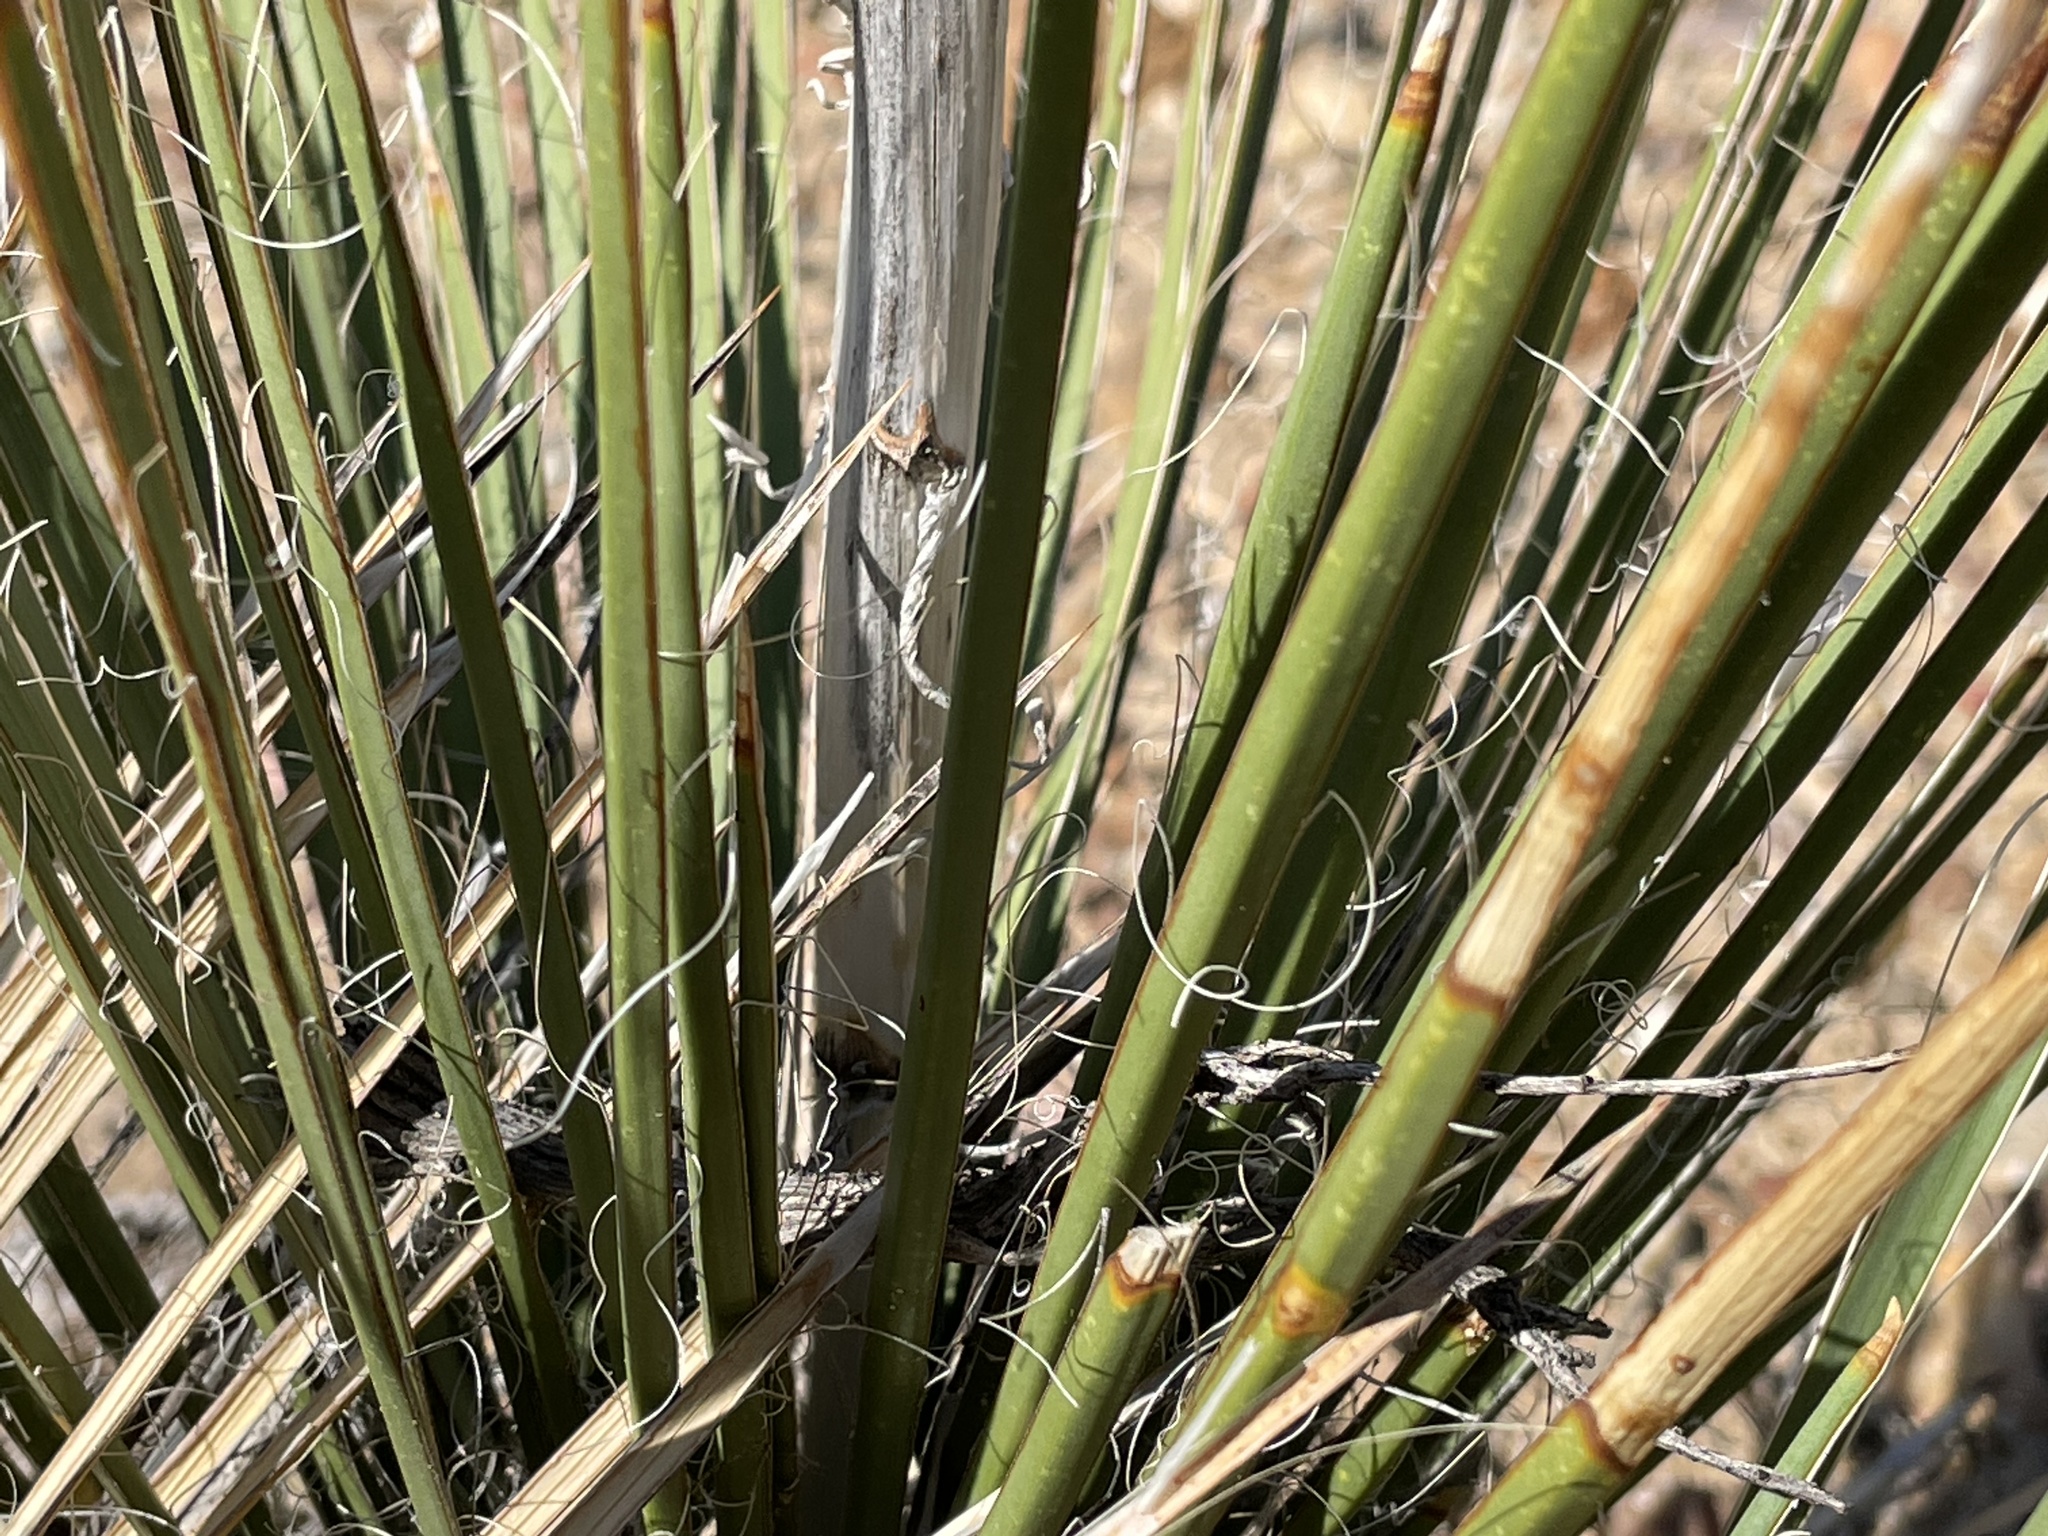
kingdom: Plantae
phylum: Tracheophyta
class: Liliopsida
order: Asparagales
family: Asparagaceae
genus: Yucca
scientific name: Yucca baileyi
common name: Alpine yucca
